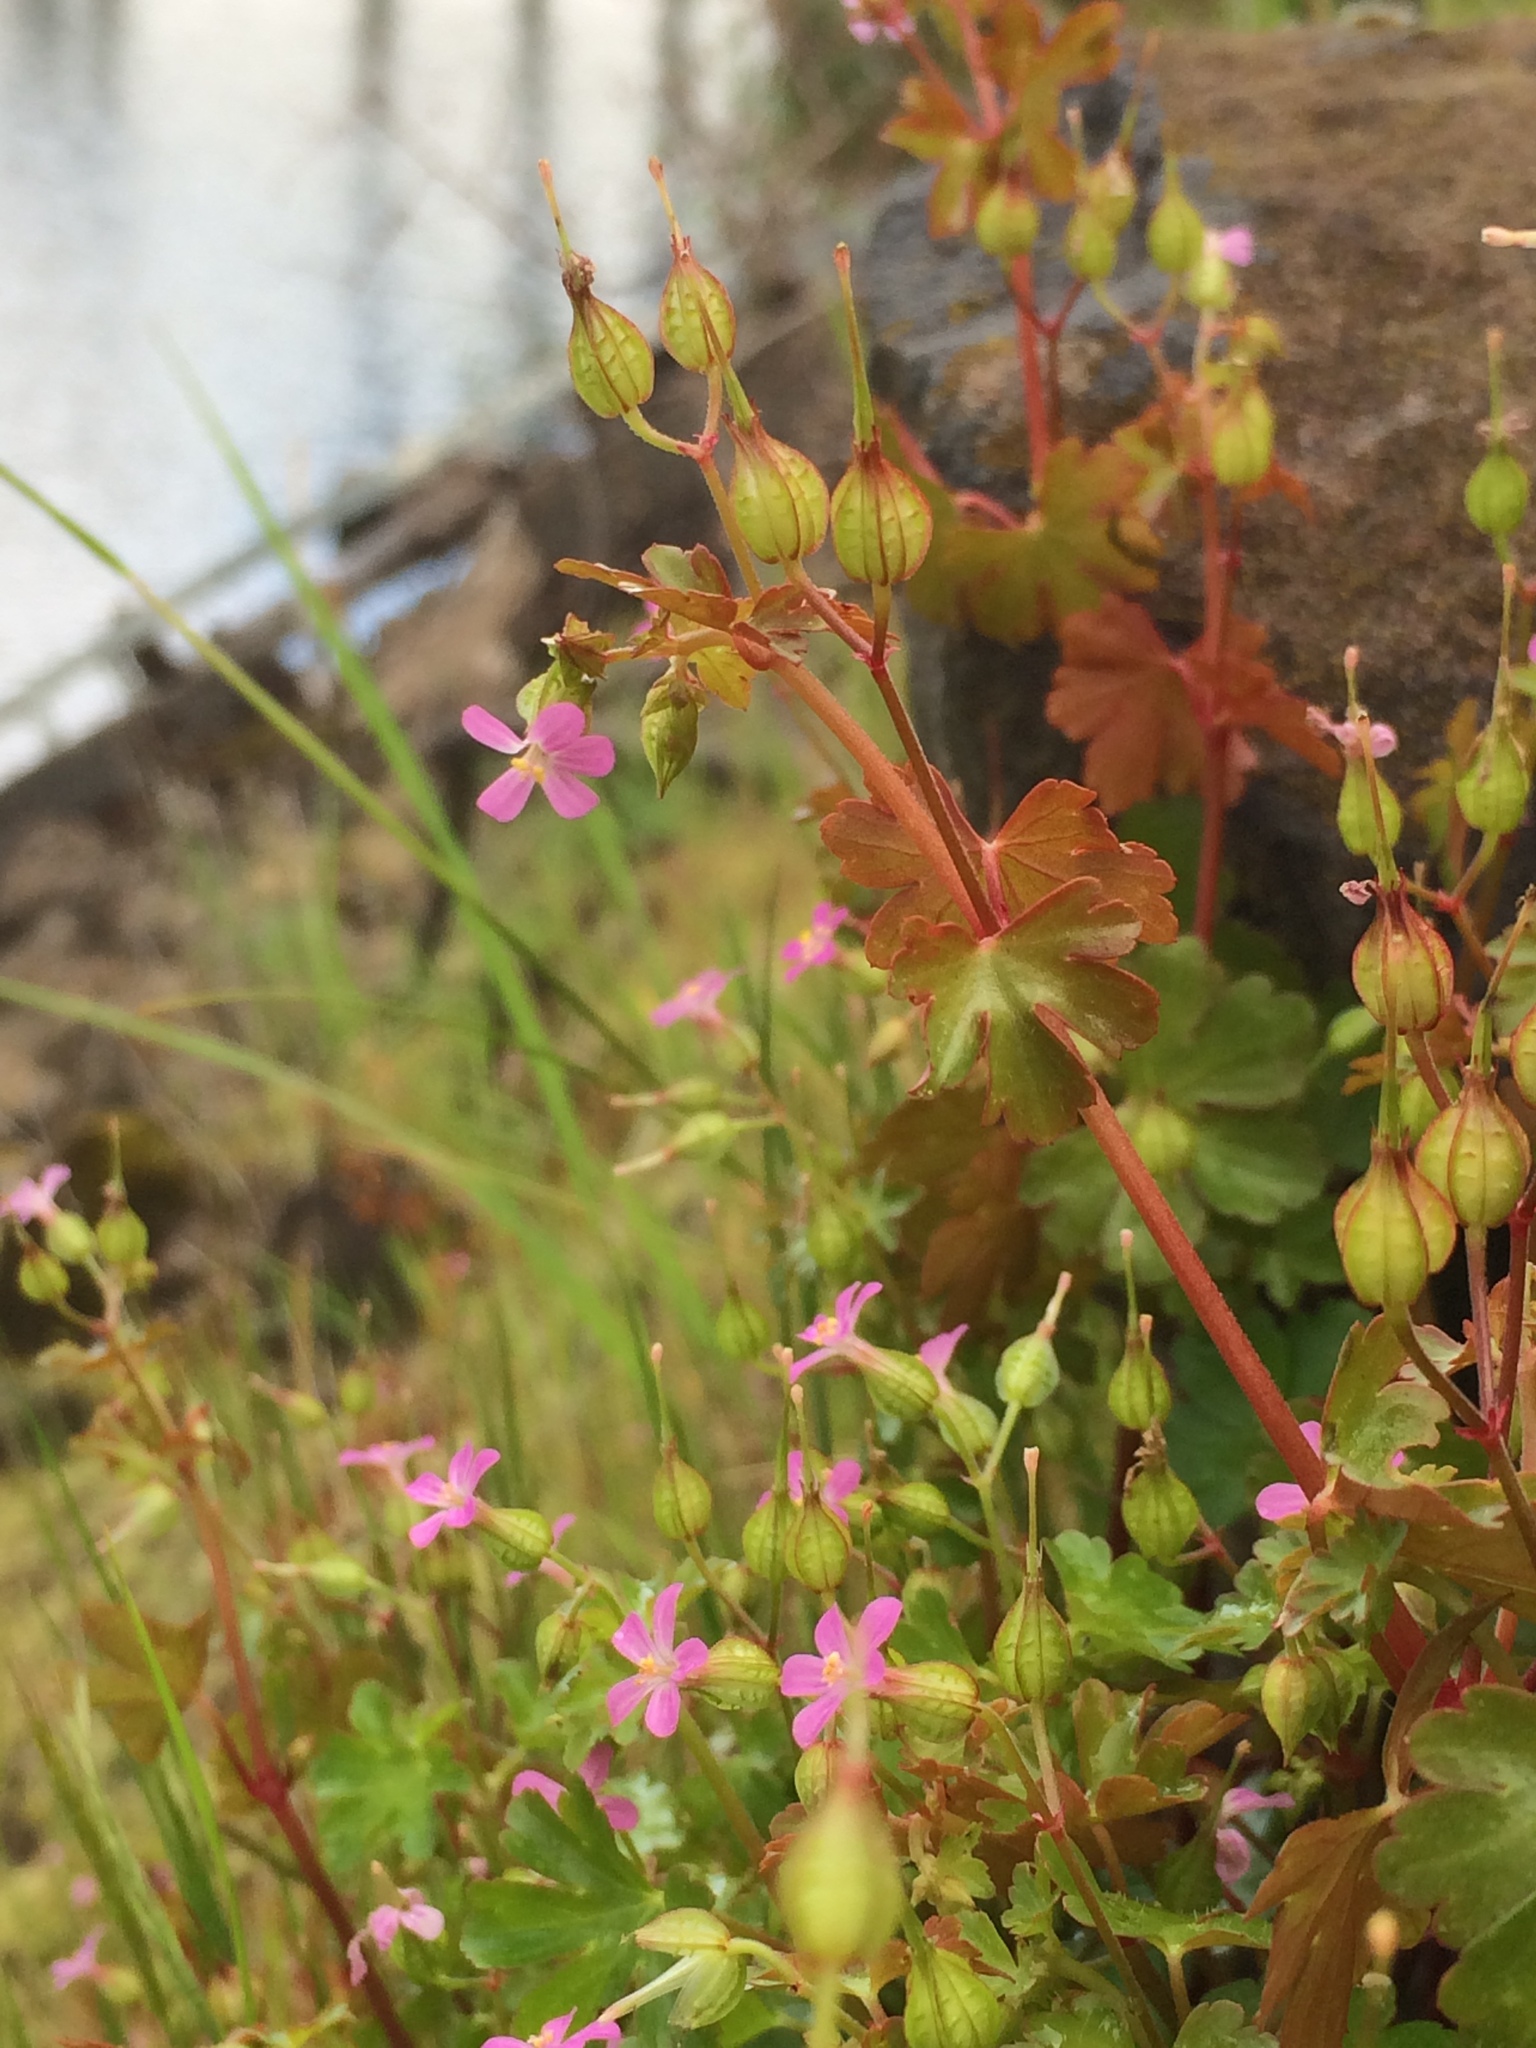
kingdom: Plantae
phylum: Tracheophyta
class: Magnoliopsida
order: Geraniales
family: Geraniaceae
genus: Geranium
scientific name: Geranium lucidum
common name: Shining crane's-bill
